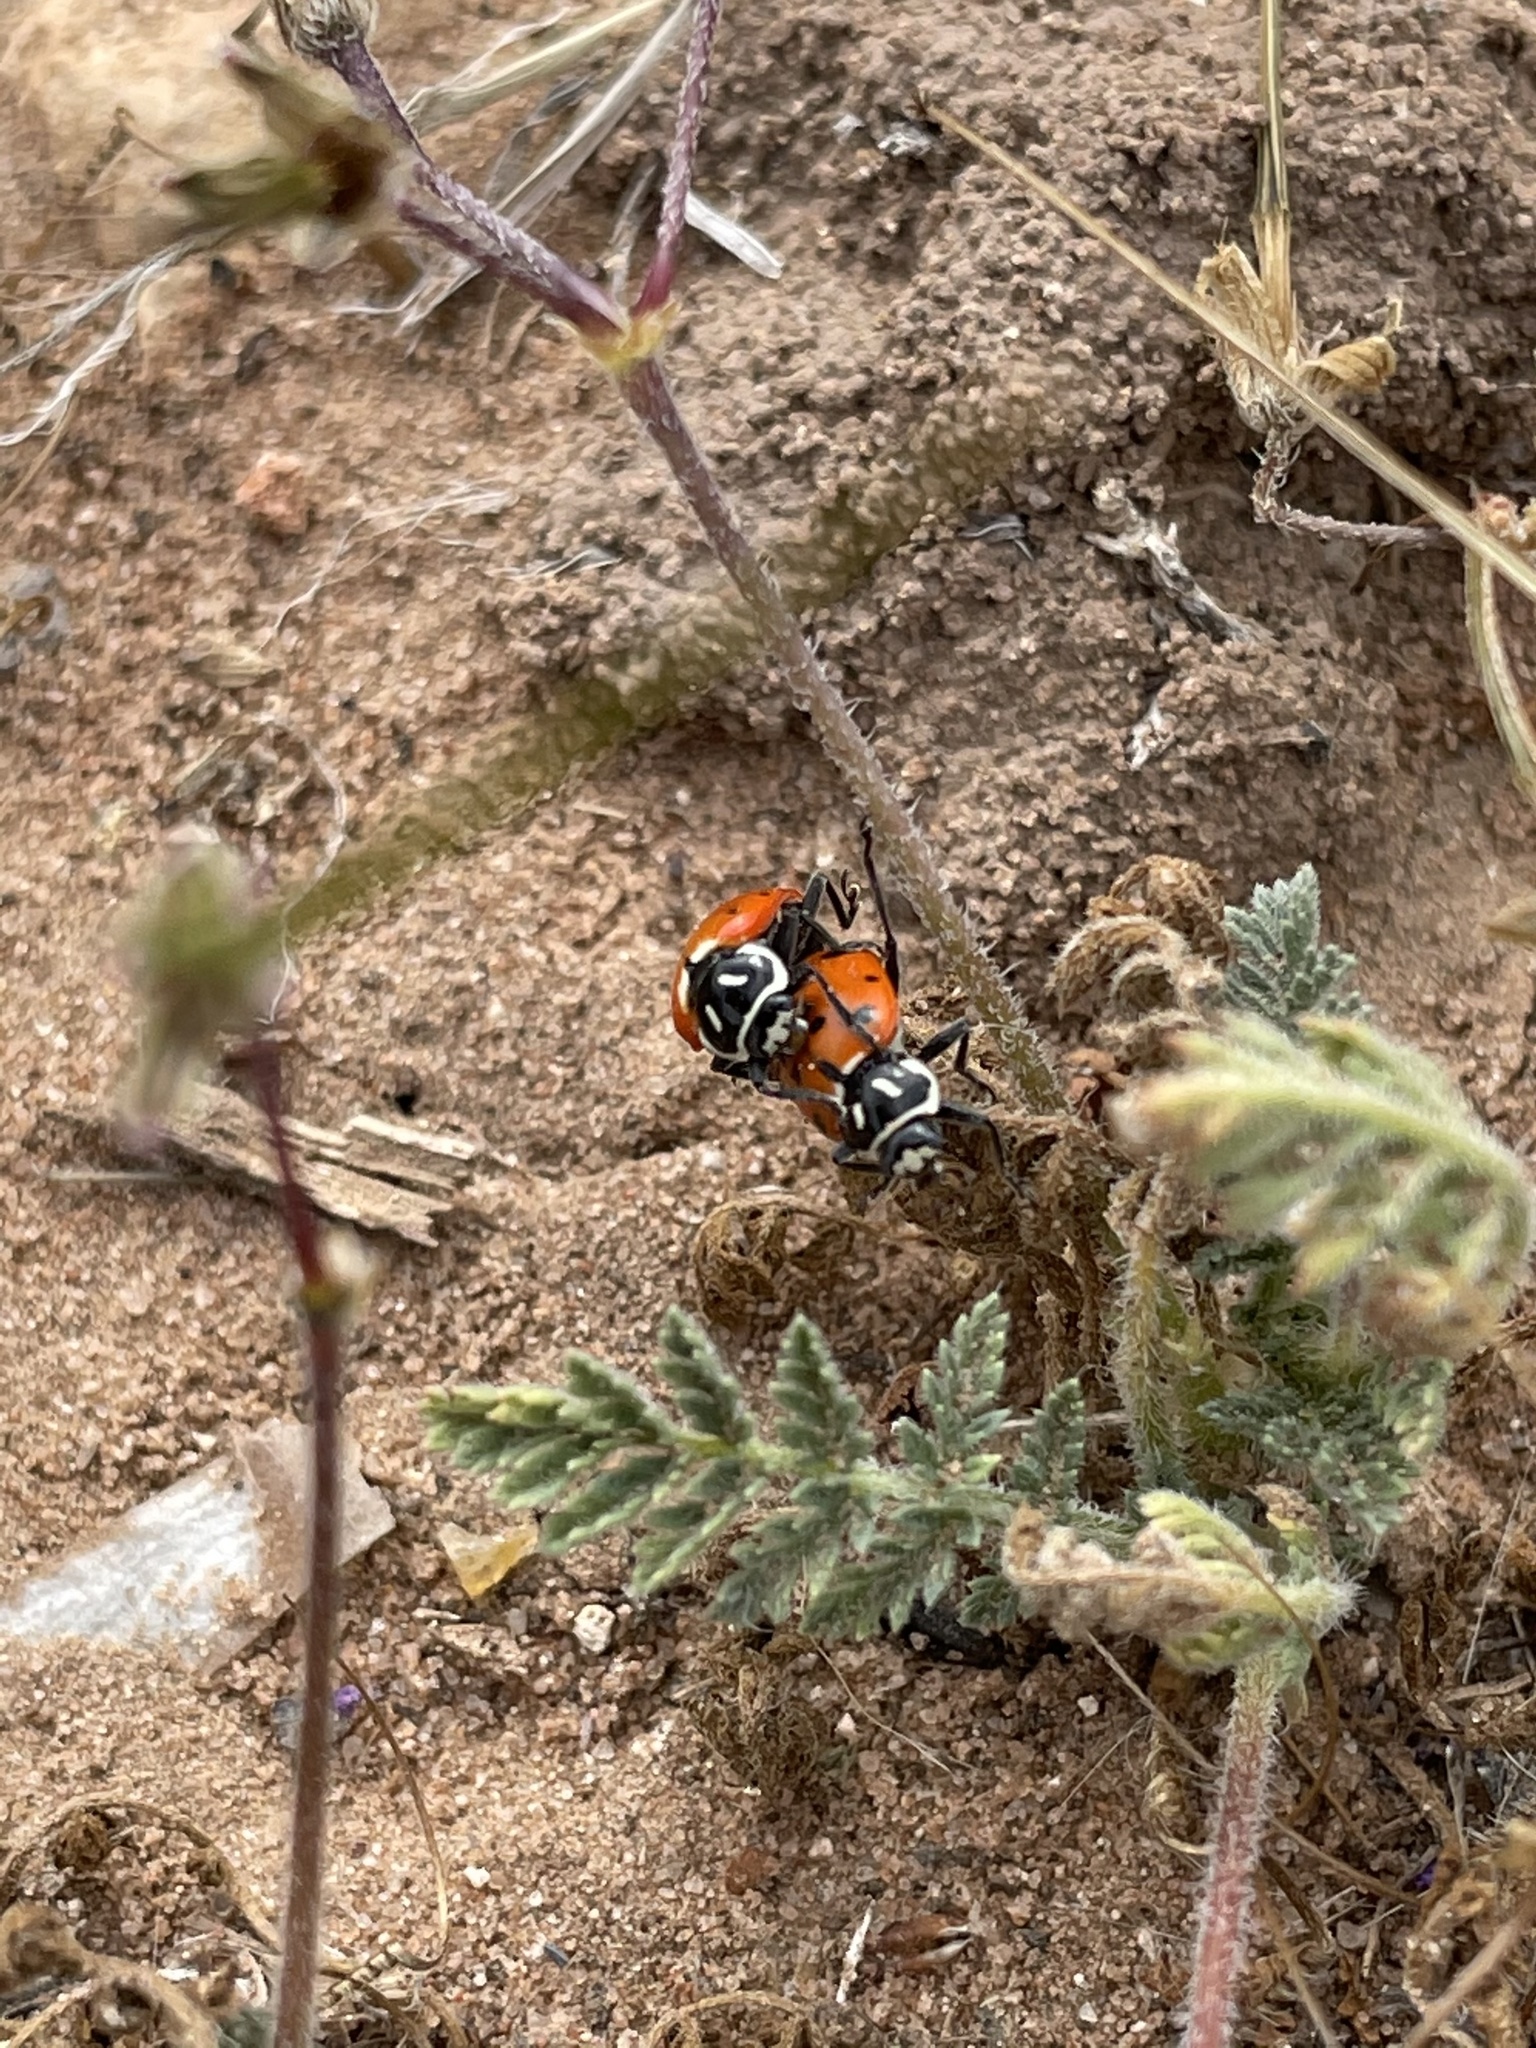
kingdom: Animalia
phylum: Arthropoda
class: Insecta
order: Coleoptera
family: Coccinellidae
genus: Hippodamia
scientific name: Hippodamia convergens
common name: Convergent lady beetle
